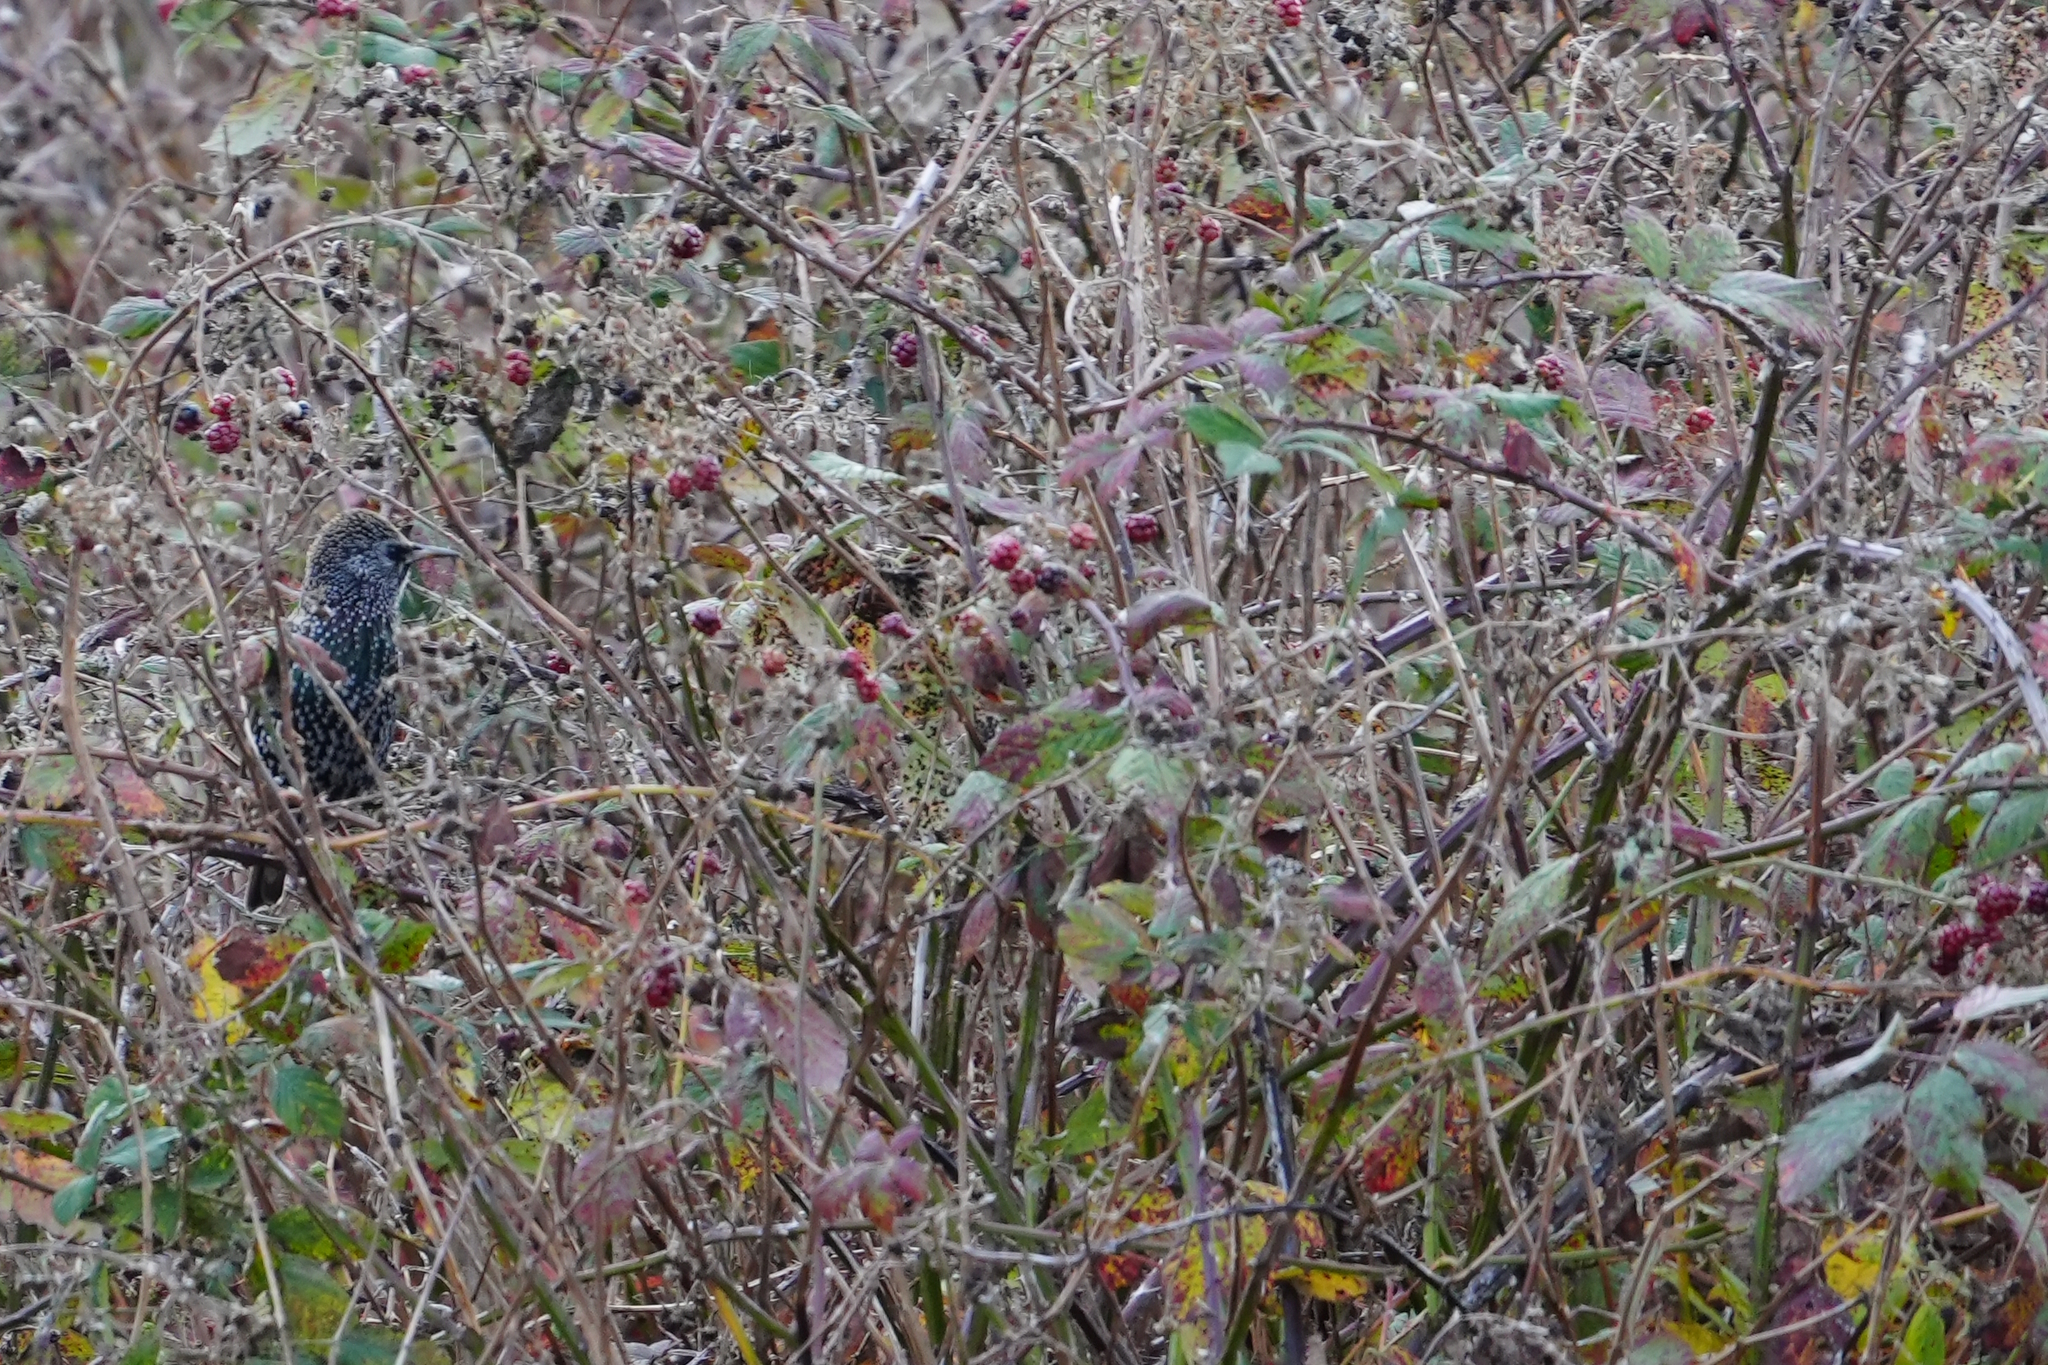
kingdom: Animalia
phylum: Chordata
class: Aves
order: Passeriformes
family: Sturnidae
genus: Sturnus
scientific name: Sturnus vulgaris
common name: Common starling
